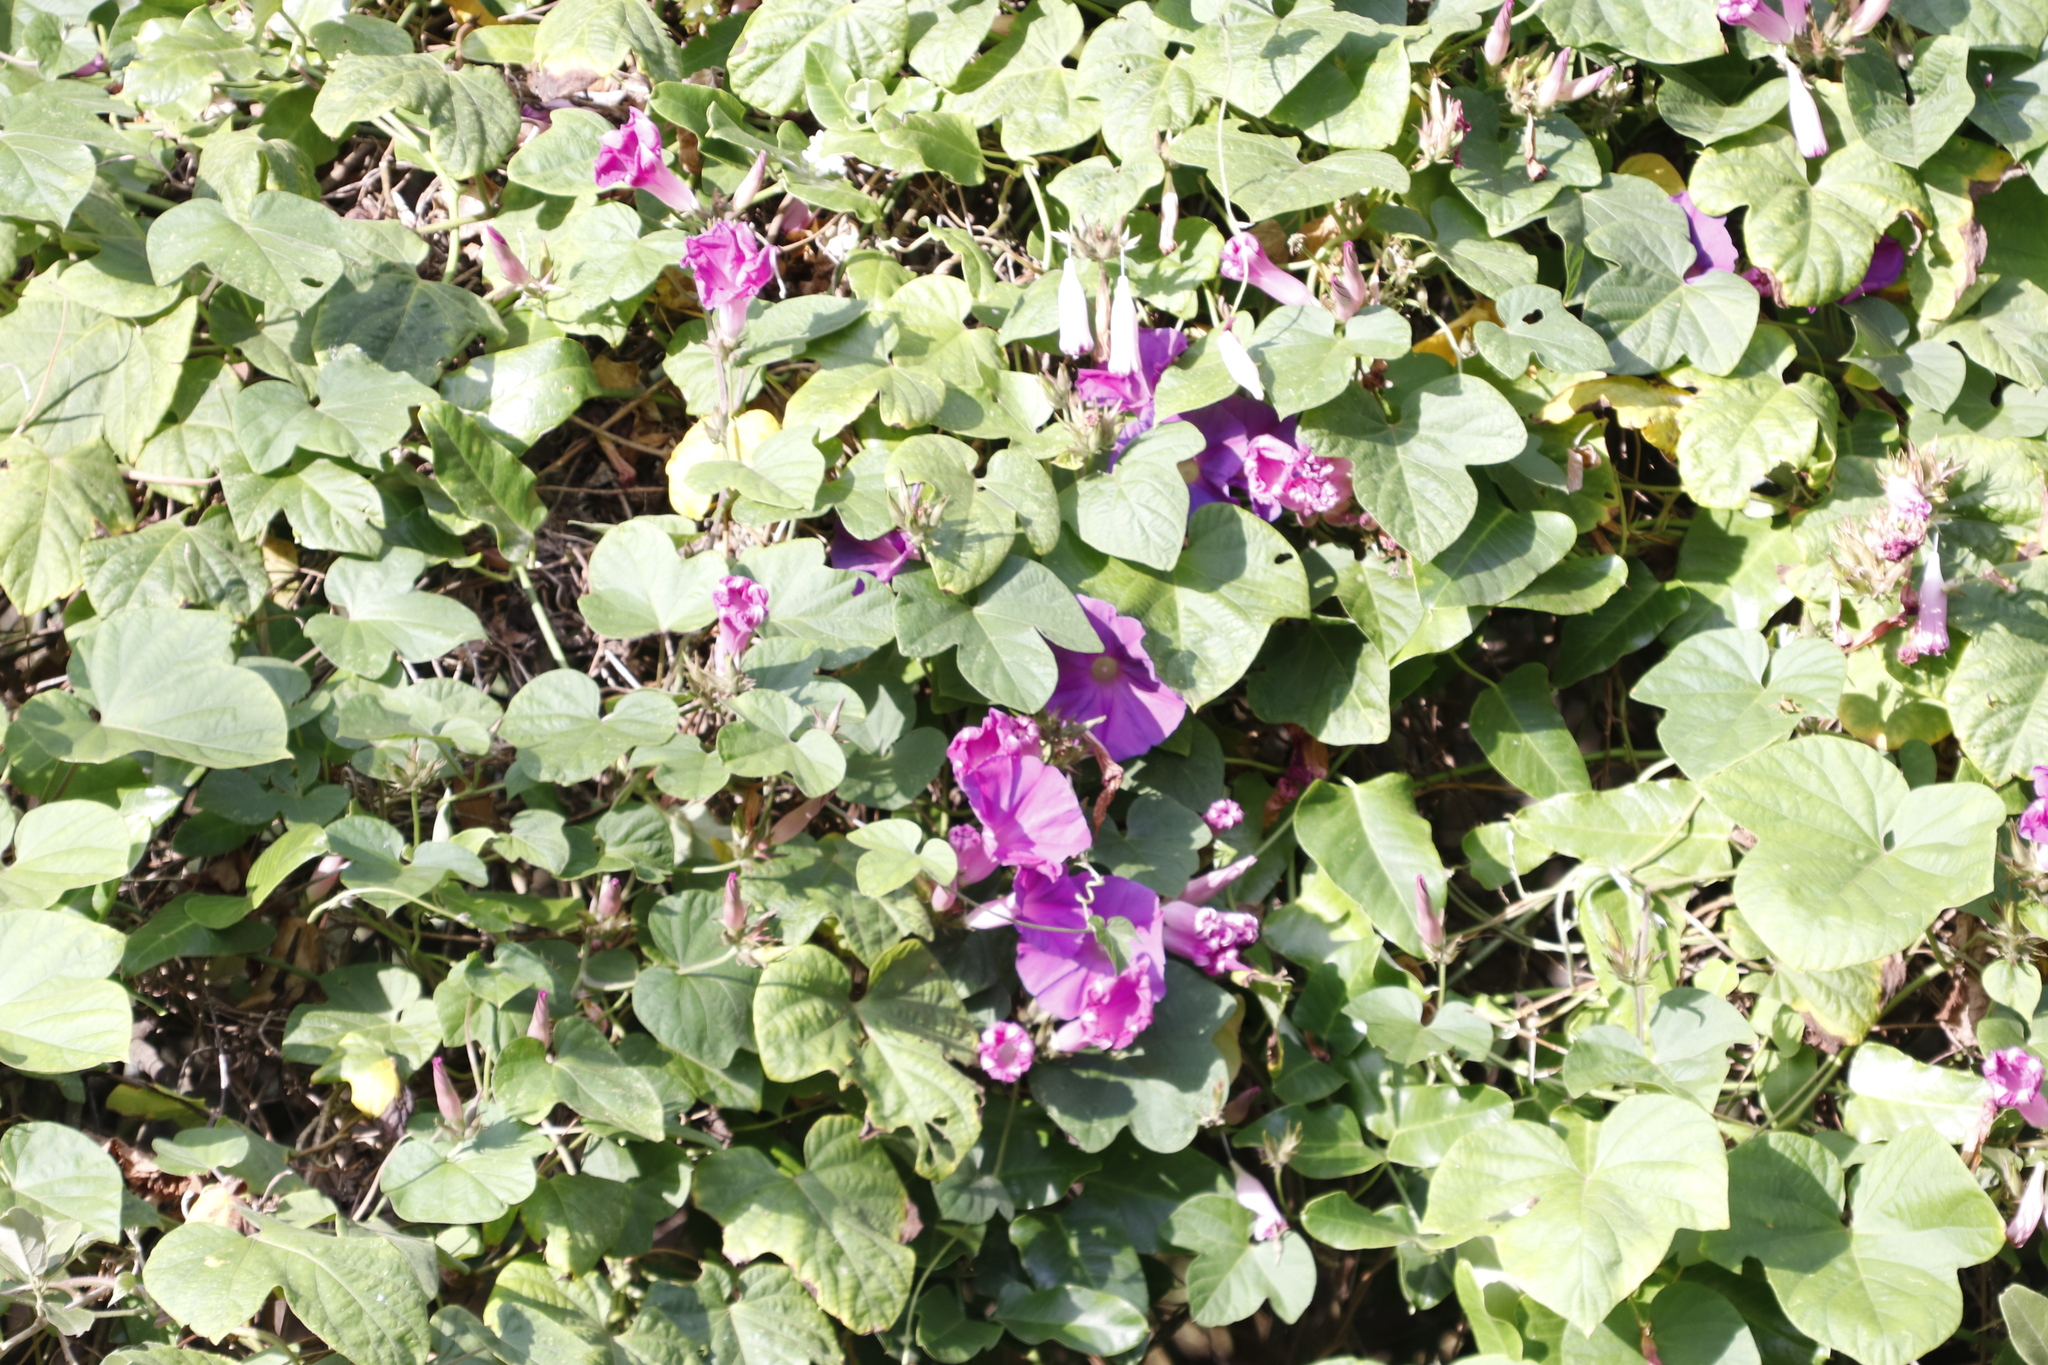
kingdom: Plantae
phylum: Tracheophyta
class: Magnoliopsida
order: Solanales
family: Convolvulaceae
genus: Ipomoea
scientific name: Ipomoea indica
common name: Blue dawnflower
